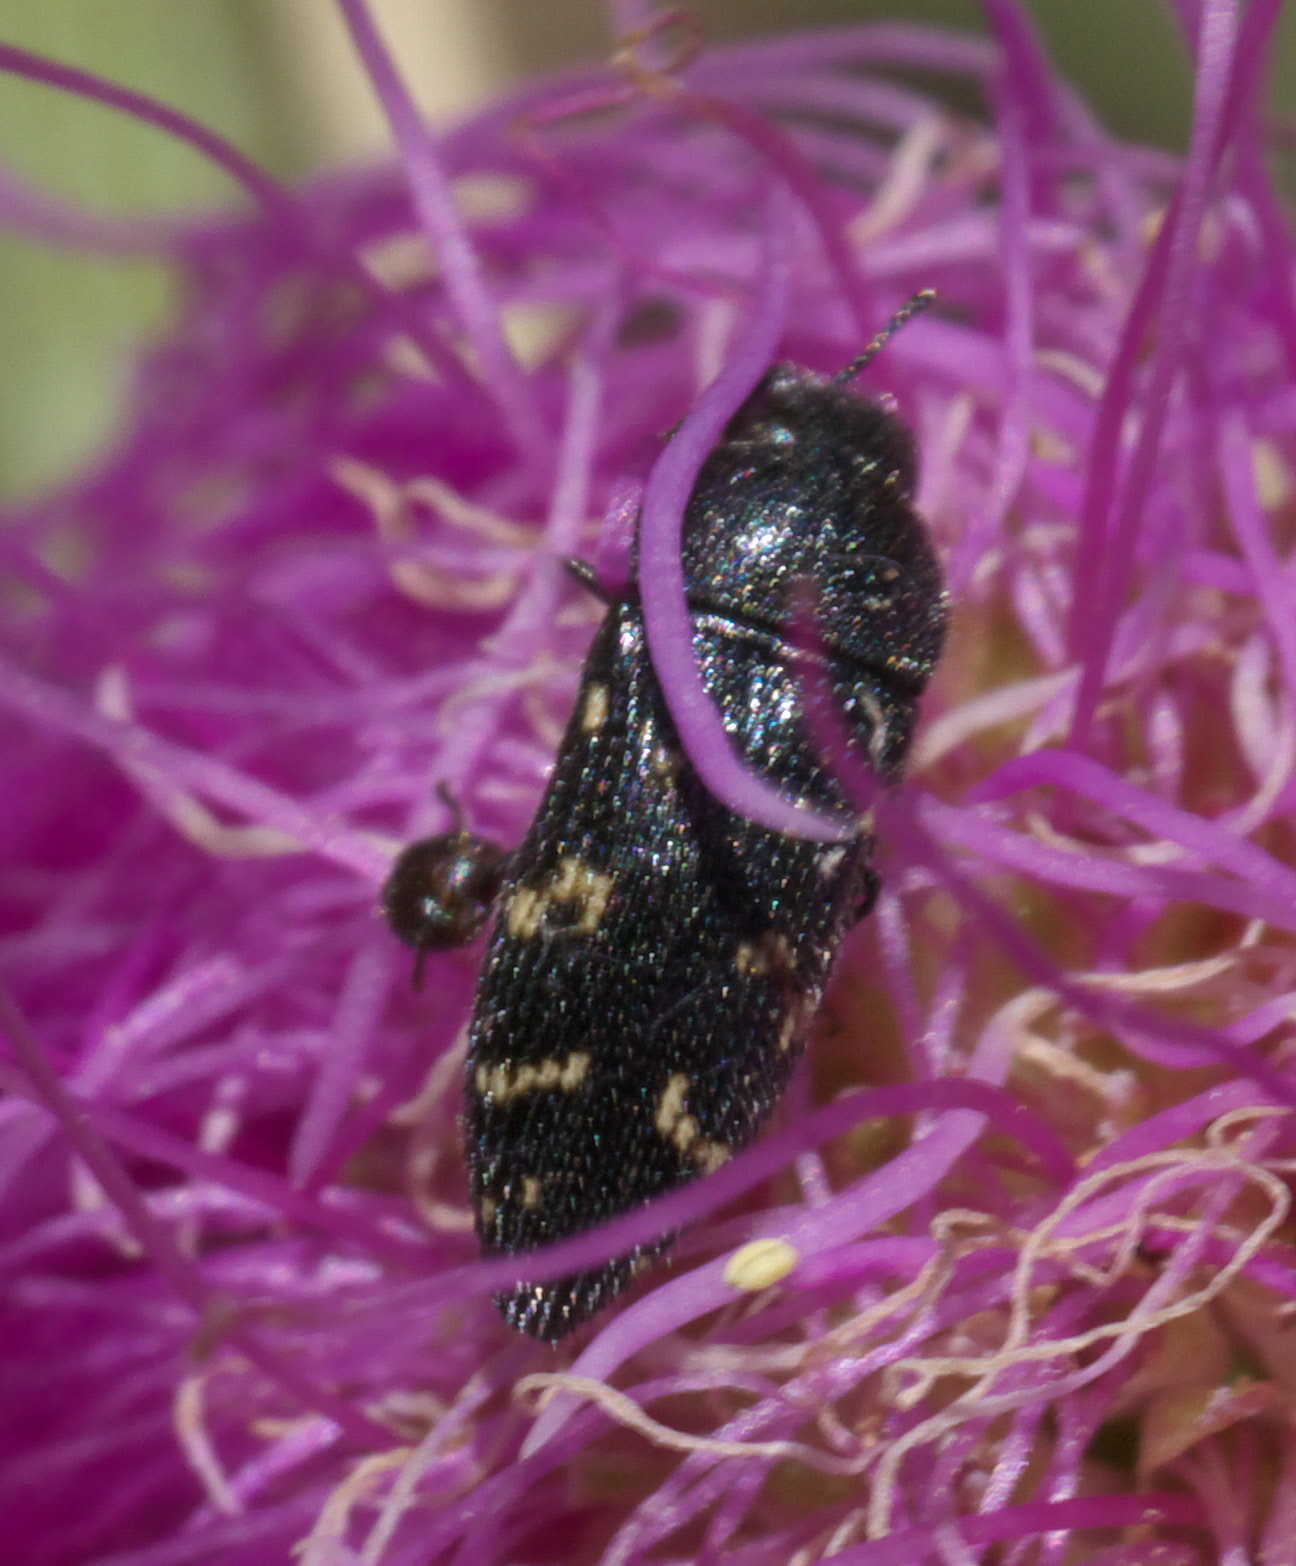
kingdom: Animalia
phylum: Arthropoda
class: Insecta
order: Coleoptera
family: Buprestidae
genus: Acmaeodera
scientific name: Acmaeodera tubulus
